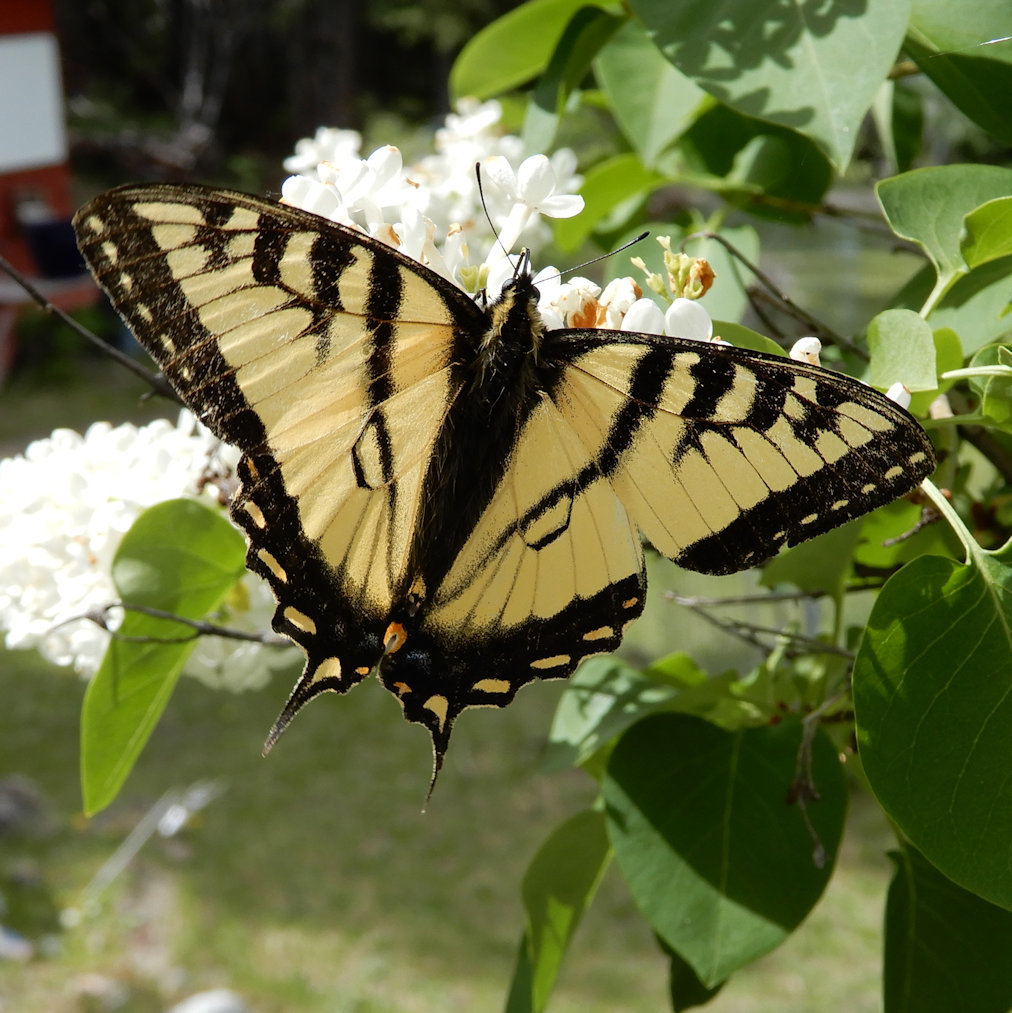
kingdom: Animalia
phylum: Arthropoda
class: Insecta
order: Lepidoptera
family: Papilionidae
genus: Papilio
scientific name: Papilio canadensis
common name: Canadian tiger swallowtail
